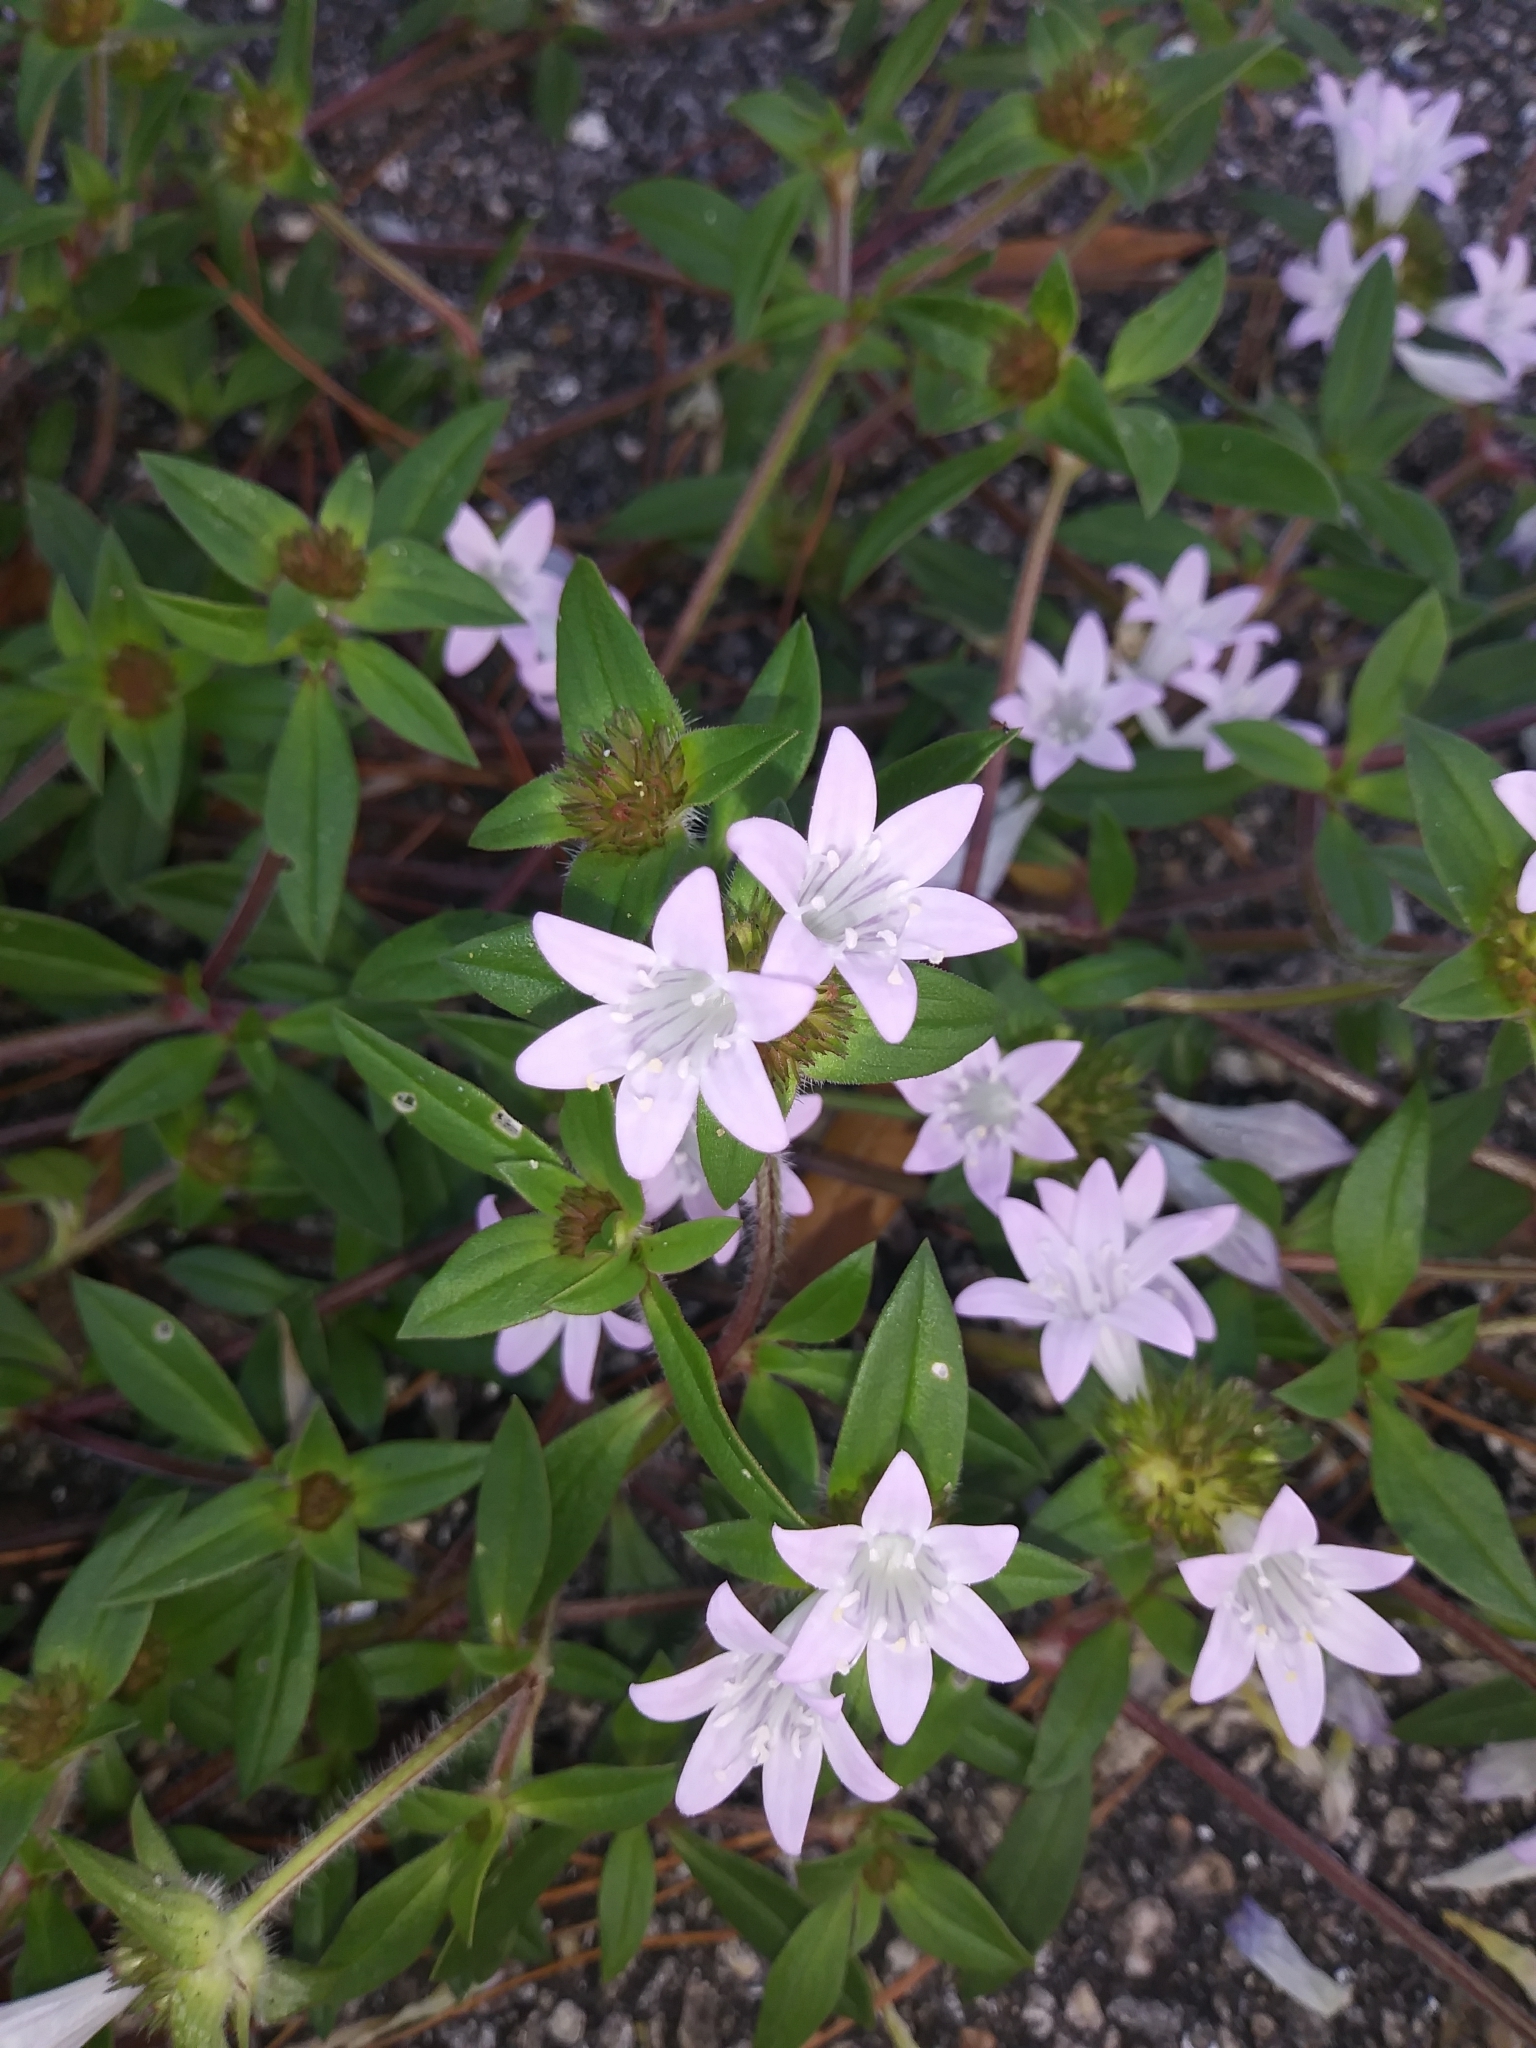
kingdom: Plantae
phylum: Tracheophyta
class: Magnoliopsida
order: Gentianales
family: Rubiaceae
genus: Richardia
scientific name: Richardia grandiflora
